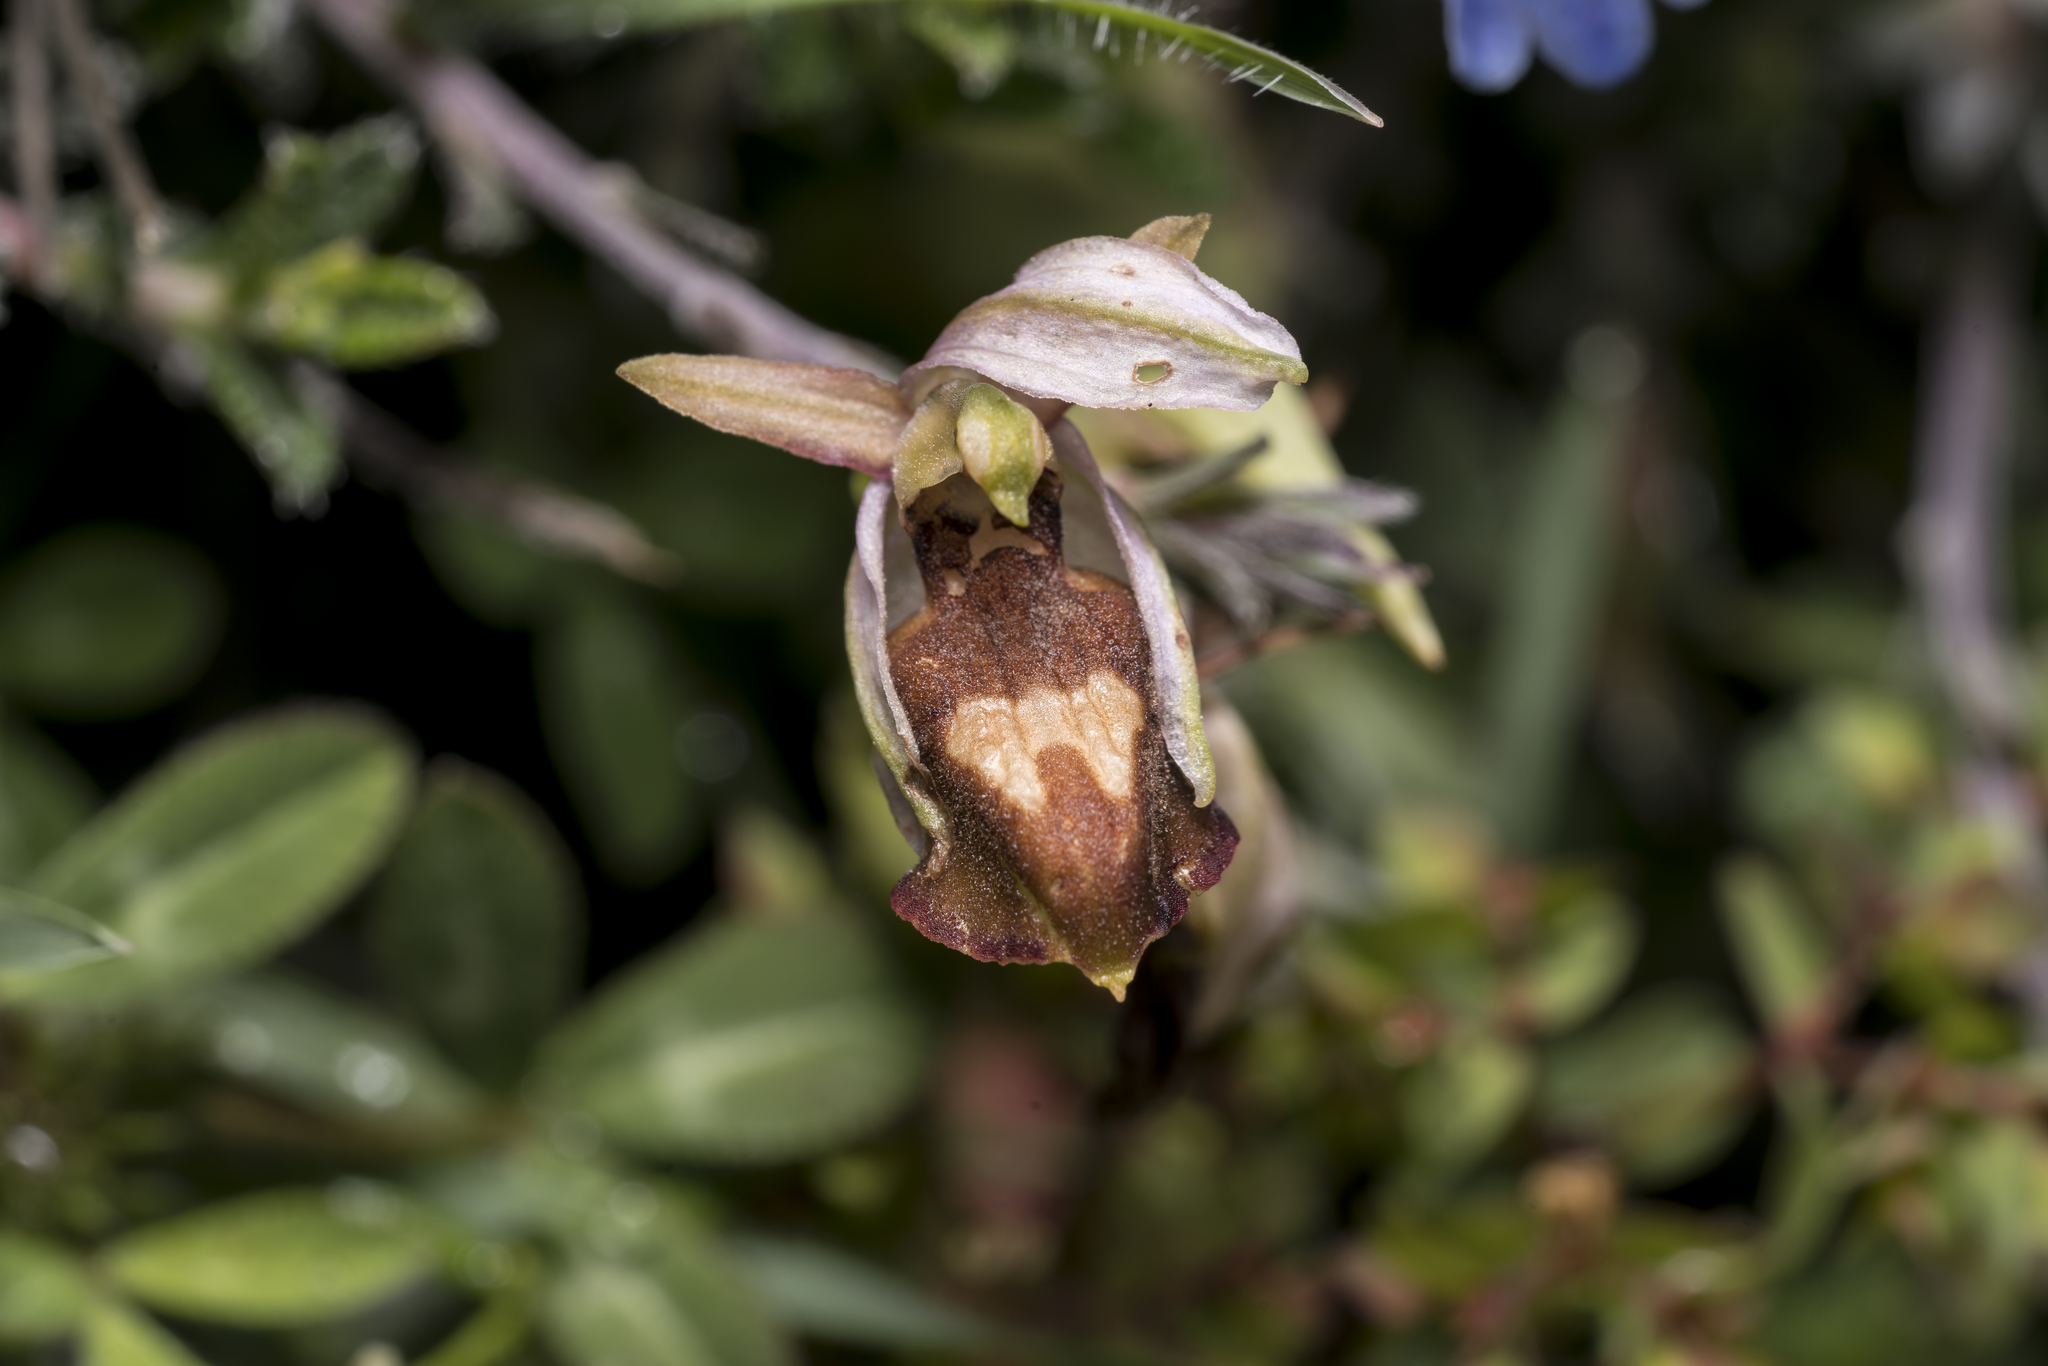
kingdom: Plantae
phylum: Tracheophyta
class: Liliopsida
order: Asparagales
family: Orchidaceae
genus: Ophrys
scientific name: Ophrys
